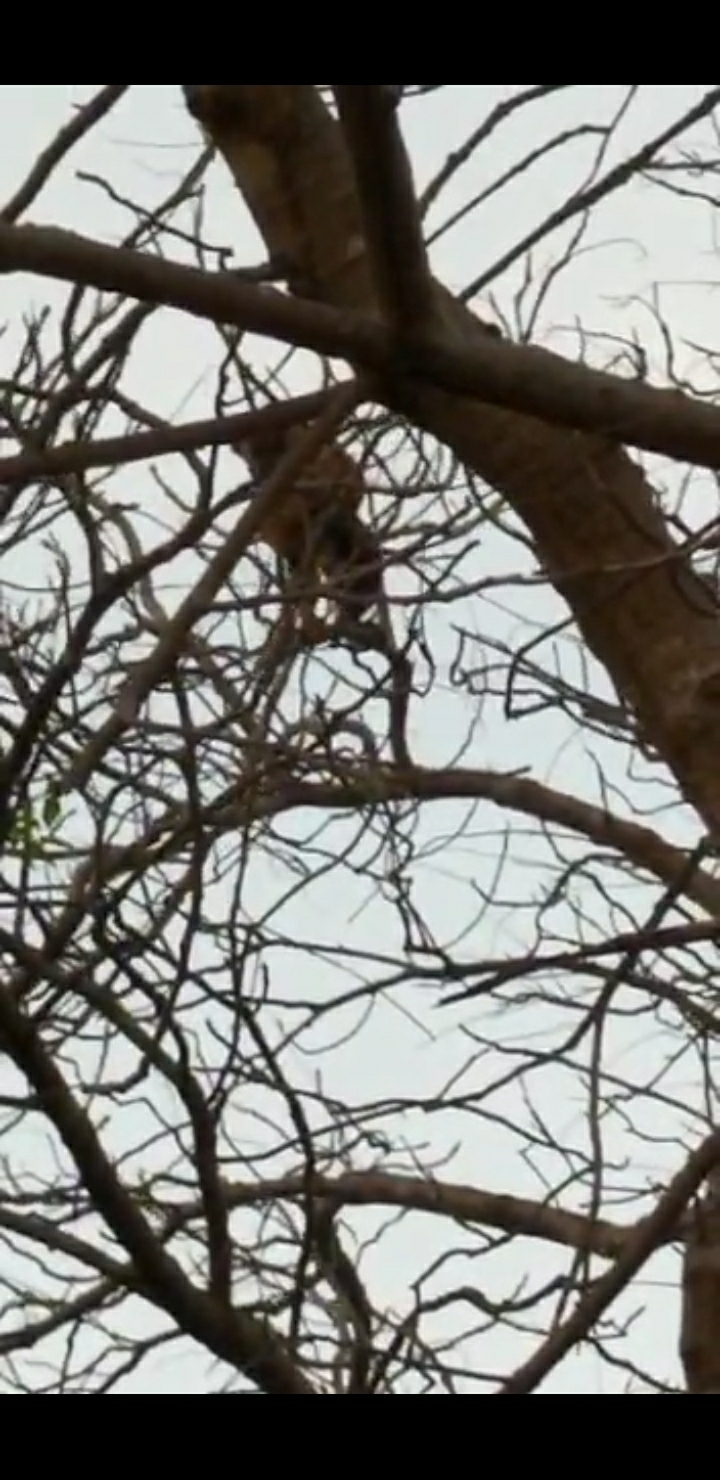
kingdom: Animalia
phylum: Chordata
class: Mammalia
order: Primates
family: Cebidae
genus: Sapajus
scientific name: Sapajus libidinosus
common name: Bearded capuchin
